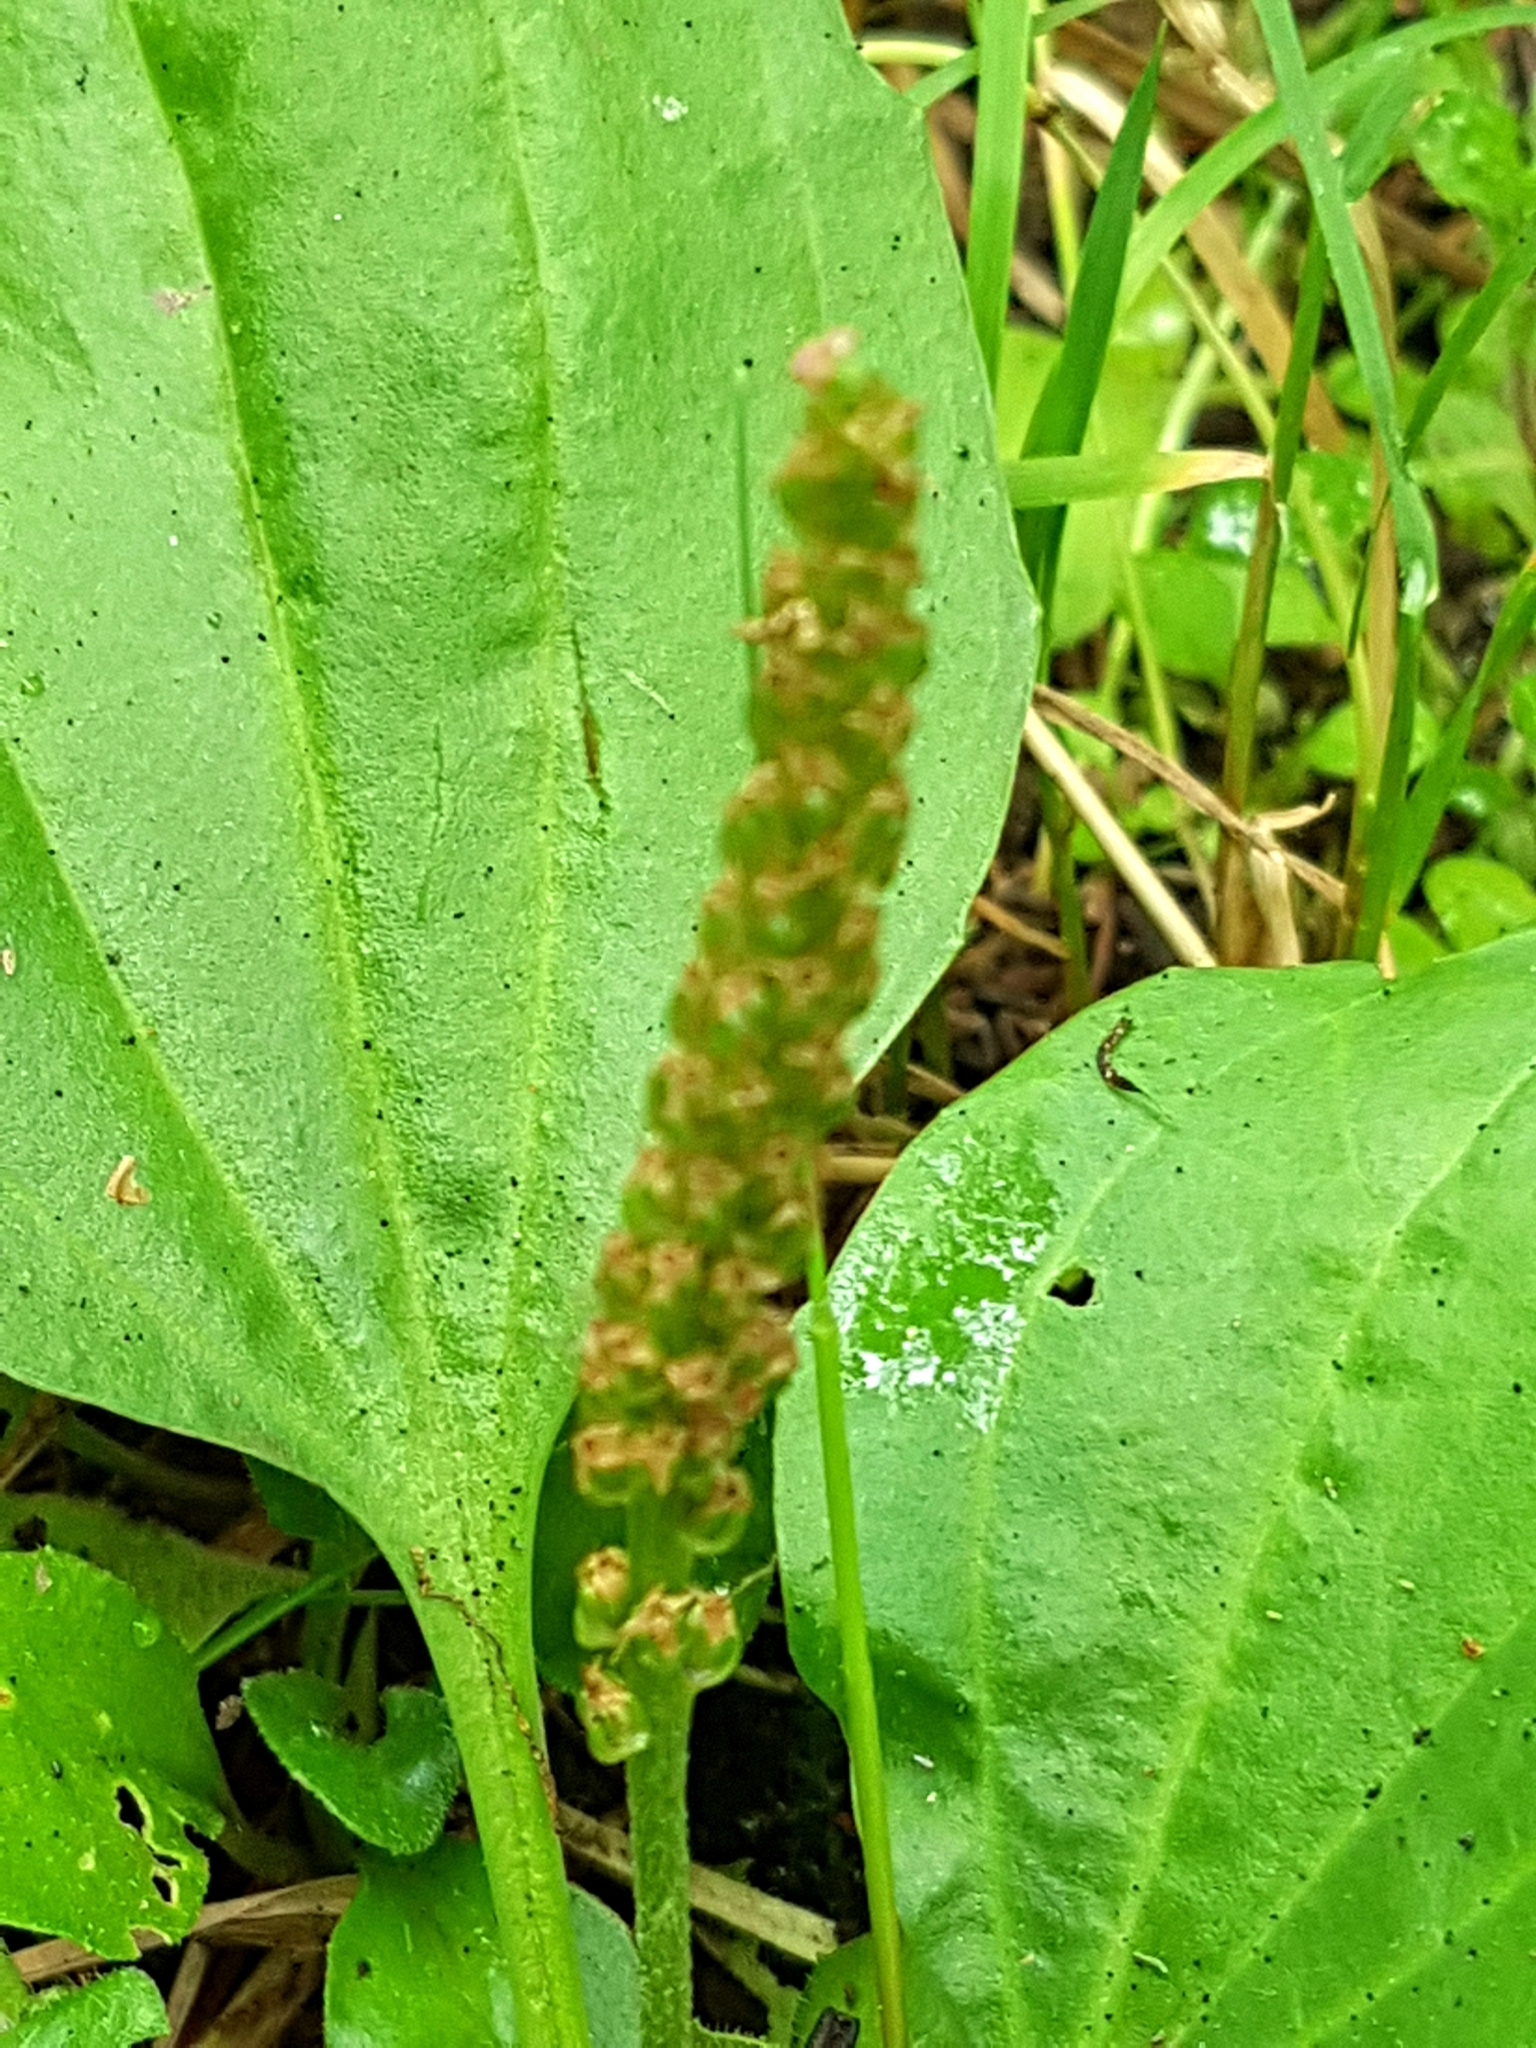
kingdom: Plantae
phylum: Tracheophyta
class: Magnoliopsida
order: Lamiales
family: Plantaginaceae
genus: Plantago
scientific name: Plantago major
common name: Common plantain
